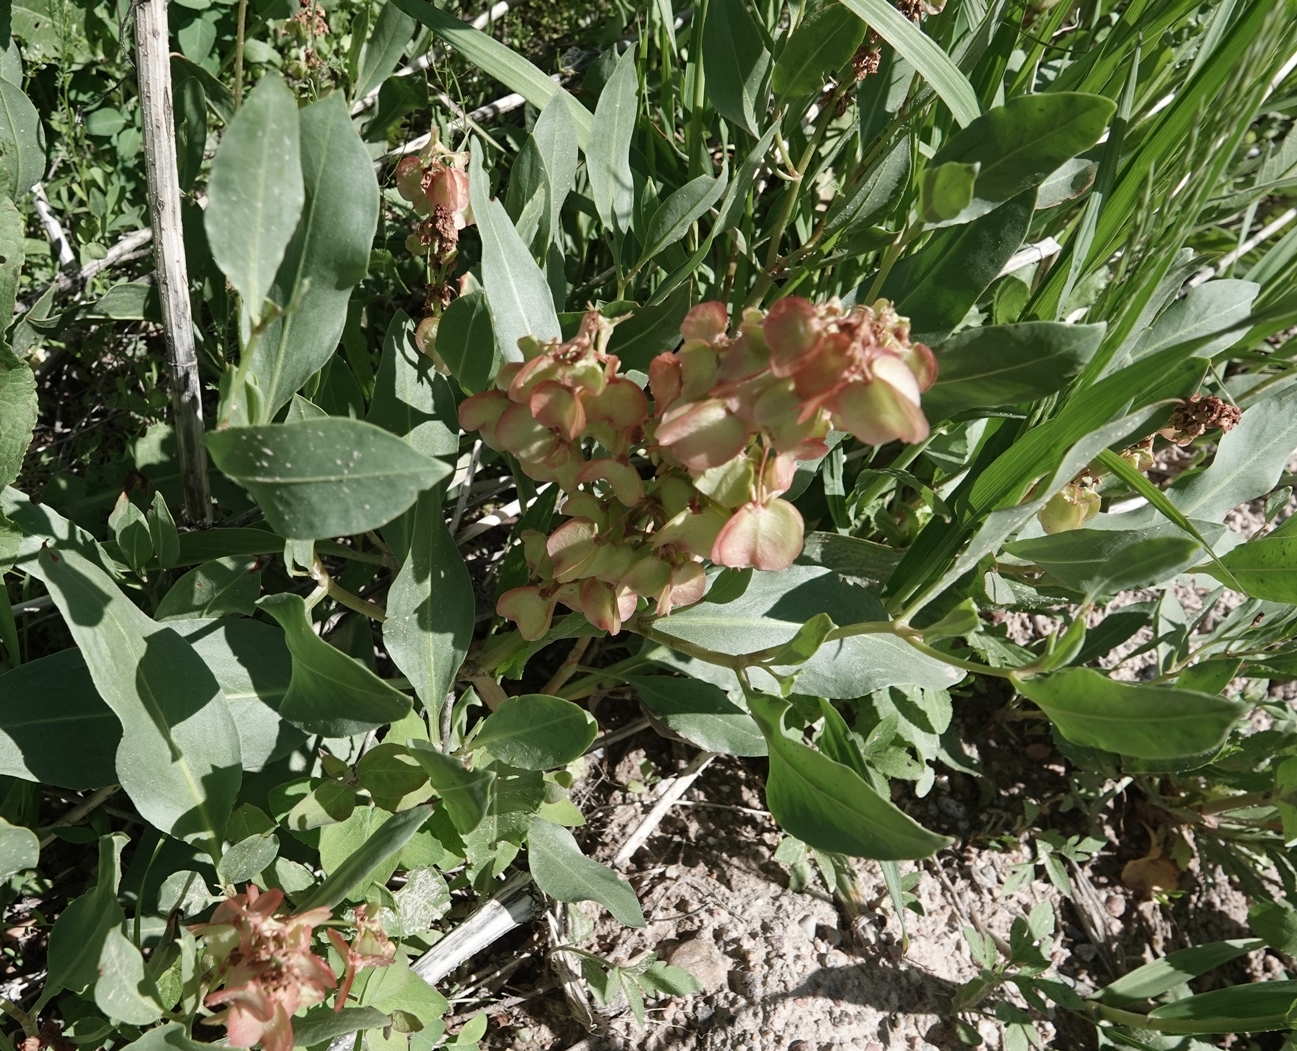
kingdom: Plantae
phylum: Tracheophyta
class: Magnoliopsida
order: Caryophyllales
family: Polygonaceae
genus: Rumex
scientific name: Rumex venosus
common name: Winged dock
